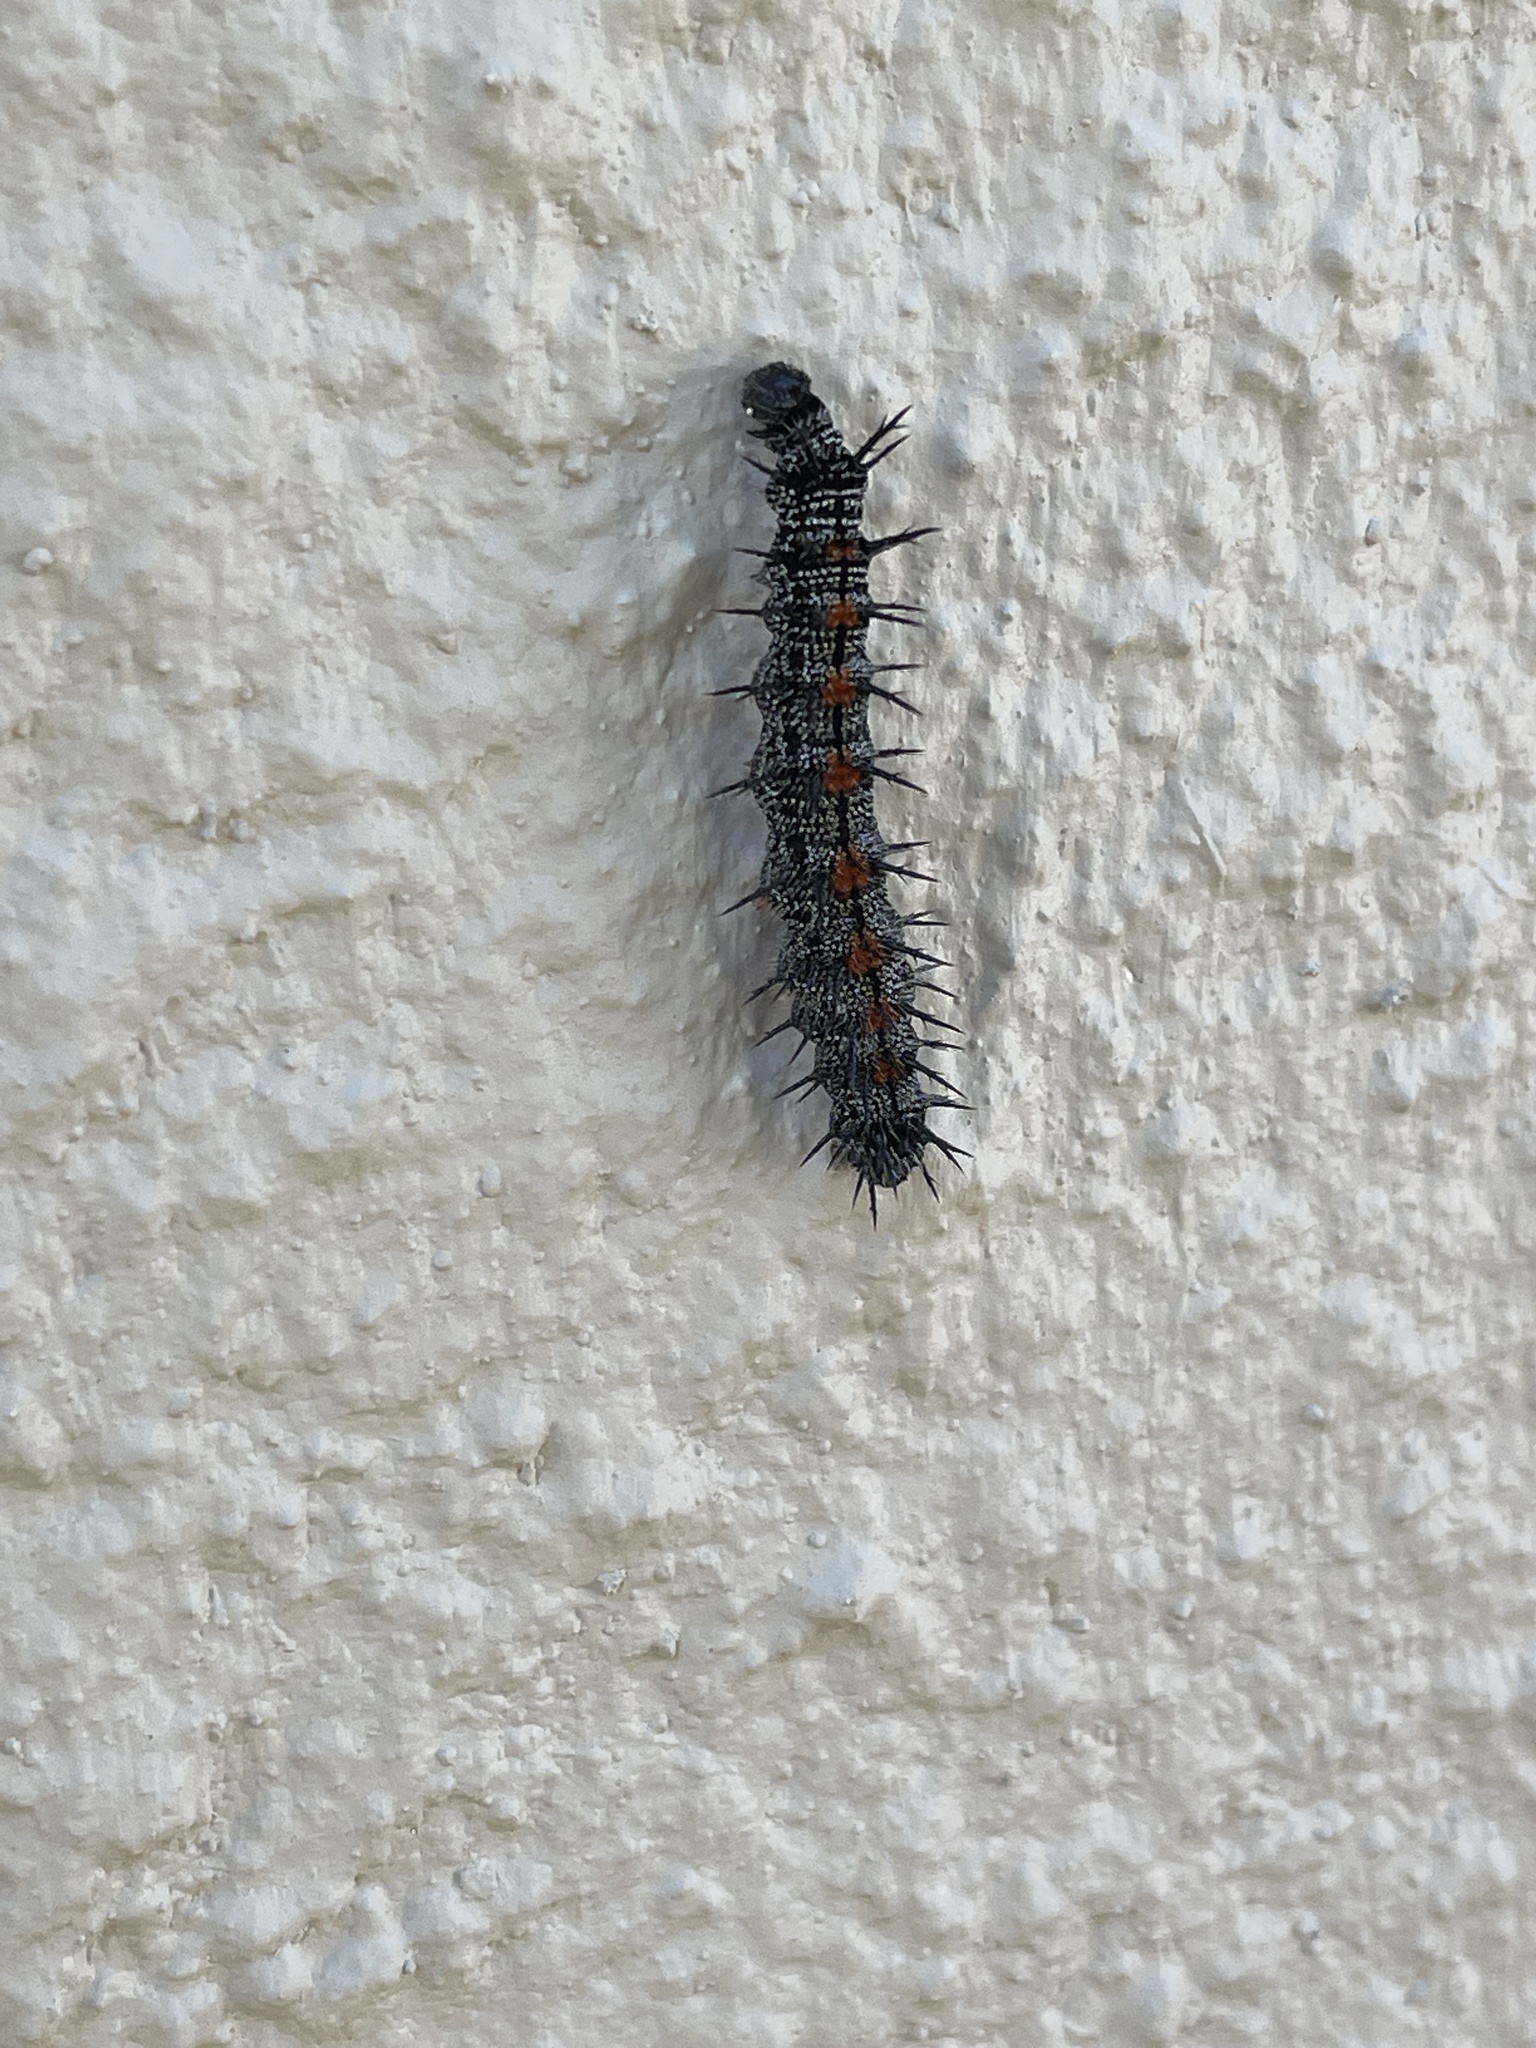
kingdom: Animalia
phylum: Arthropoda
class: Insecta
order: Lepidoptera
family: Nymphalidae
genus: Nymphalis
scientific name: Nymphalis antiopa
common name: Camberwell beauty
